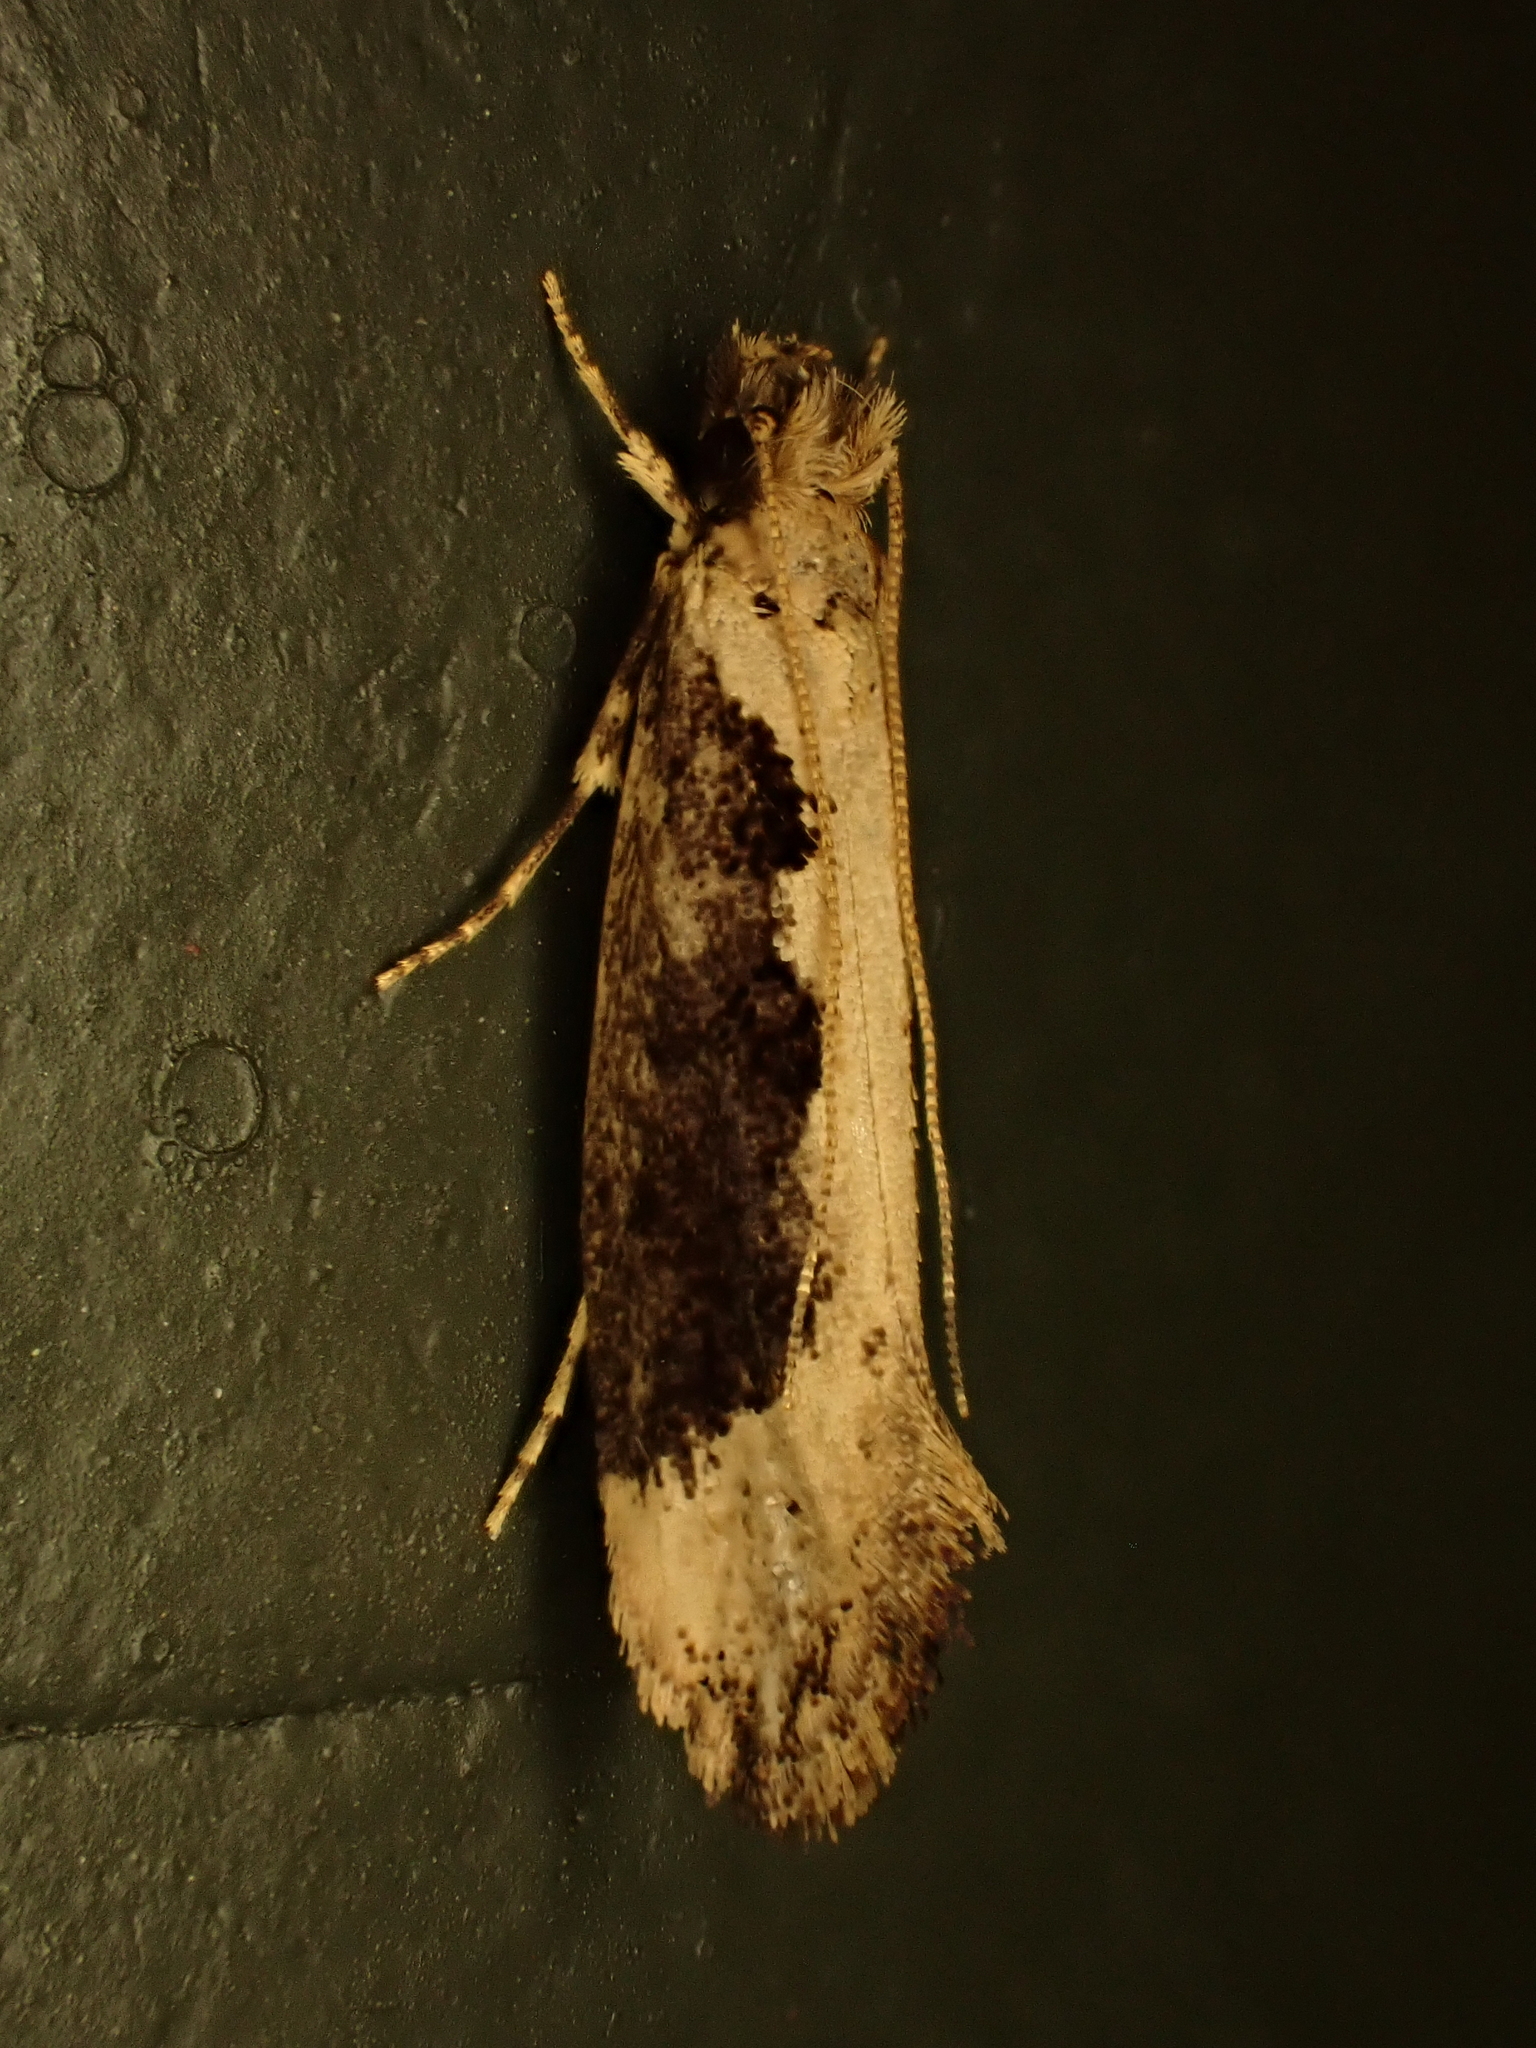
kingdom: Animalia
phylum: Arthropoda
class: Insecta
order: Lepidoptera
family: Tineidae
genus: Erechthias
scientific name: Erechthias capnitis
